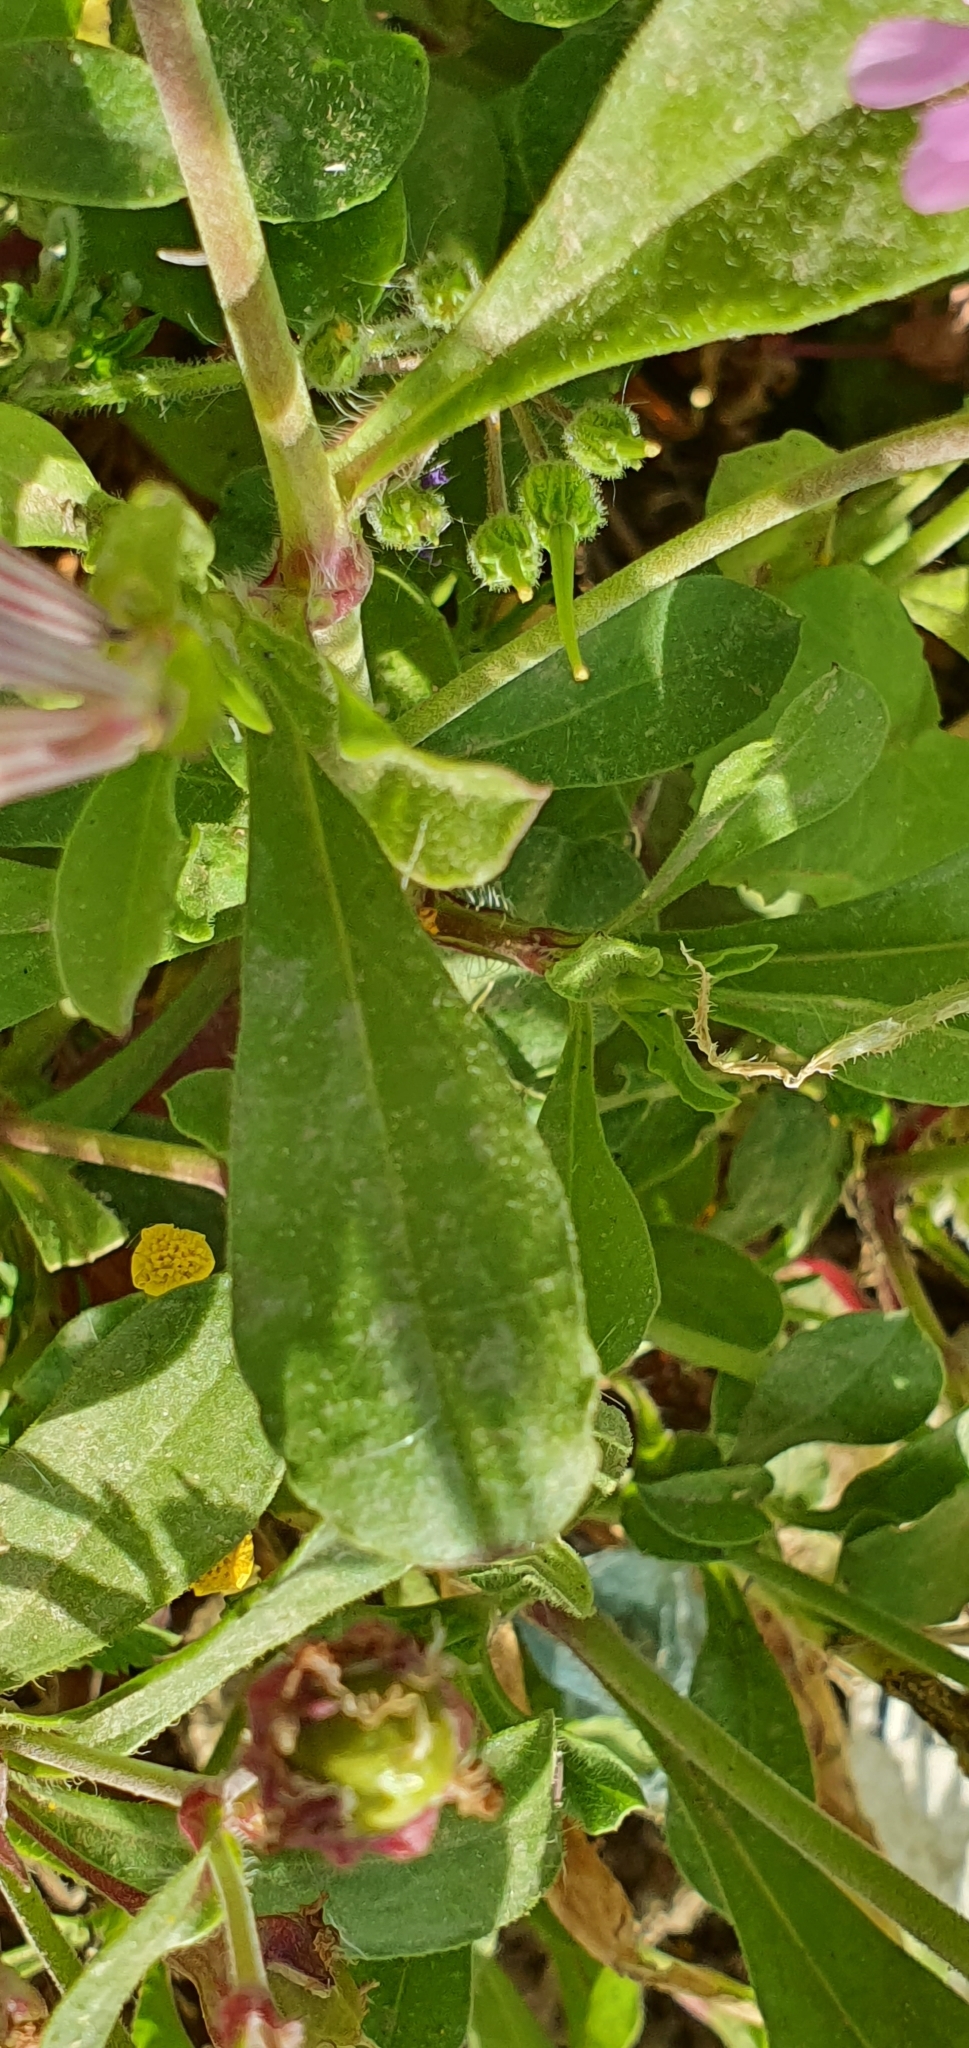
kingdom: Plantae
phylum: Tracheophyta
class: Magnoliopsida
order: Caryophyllales
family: Caryophyllaceae
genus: Silene
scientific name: Silene secundiflora
